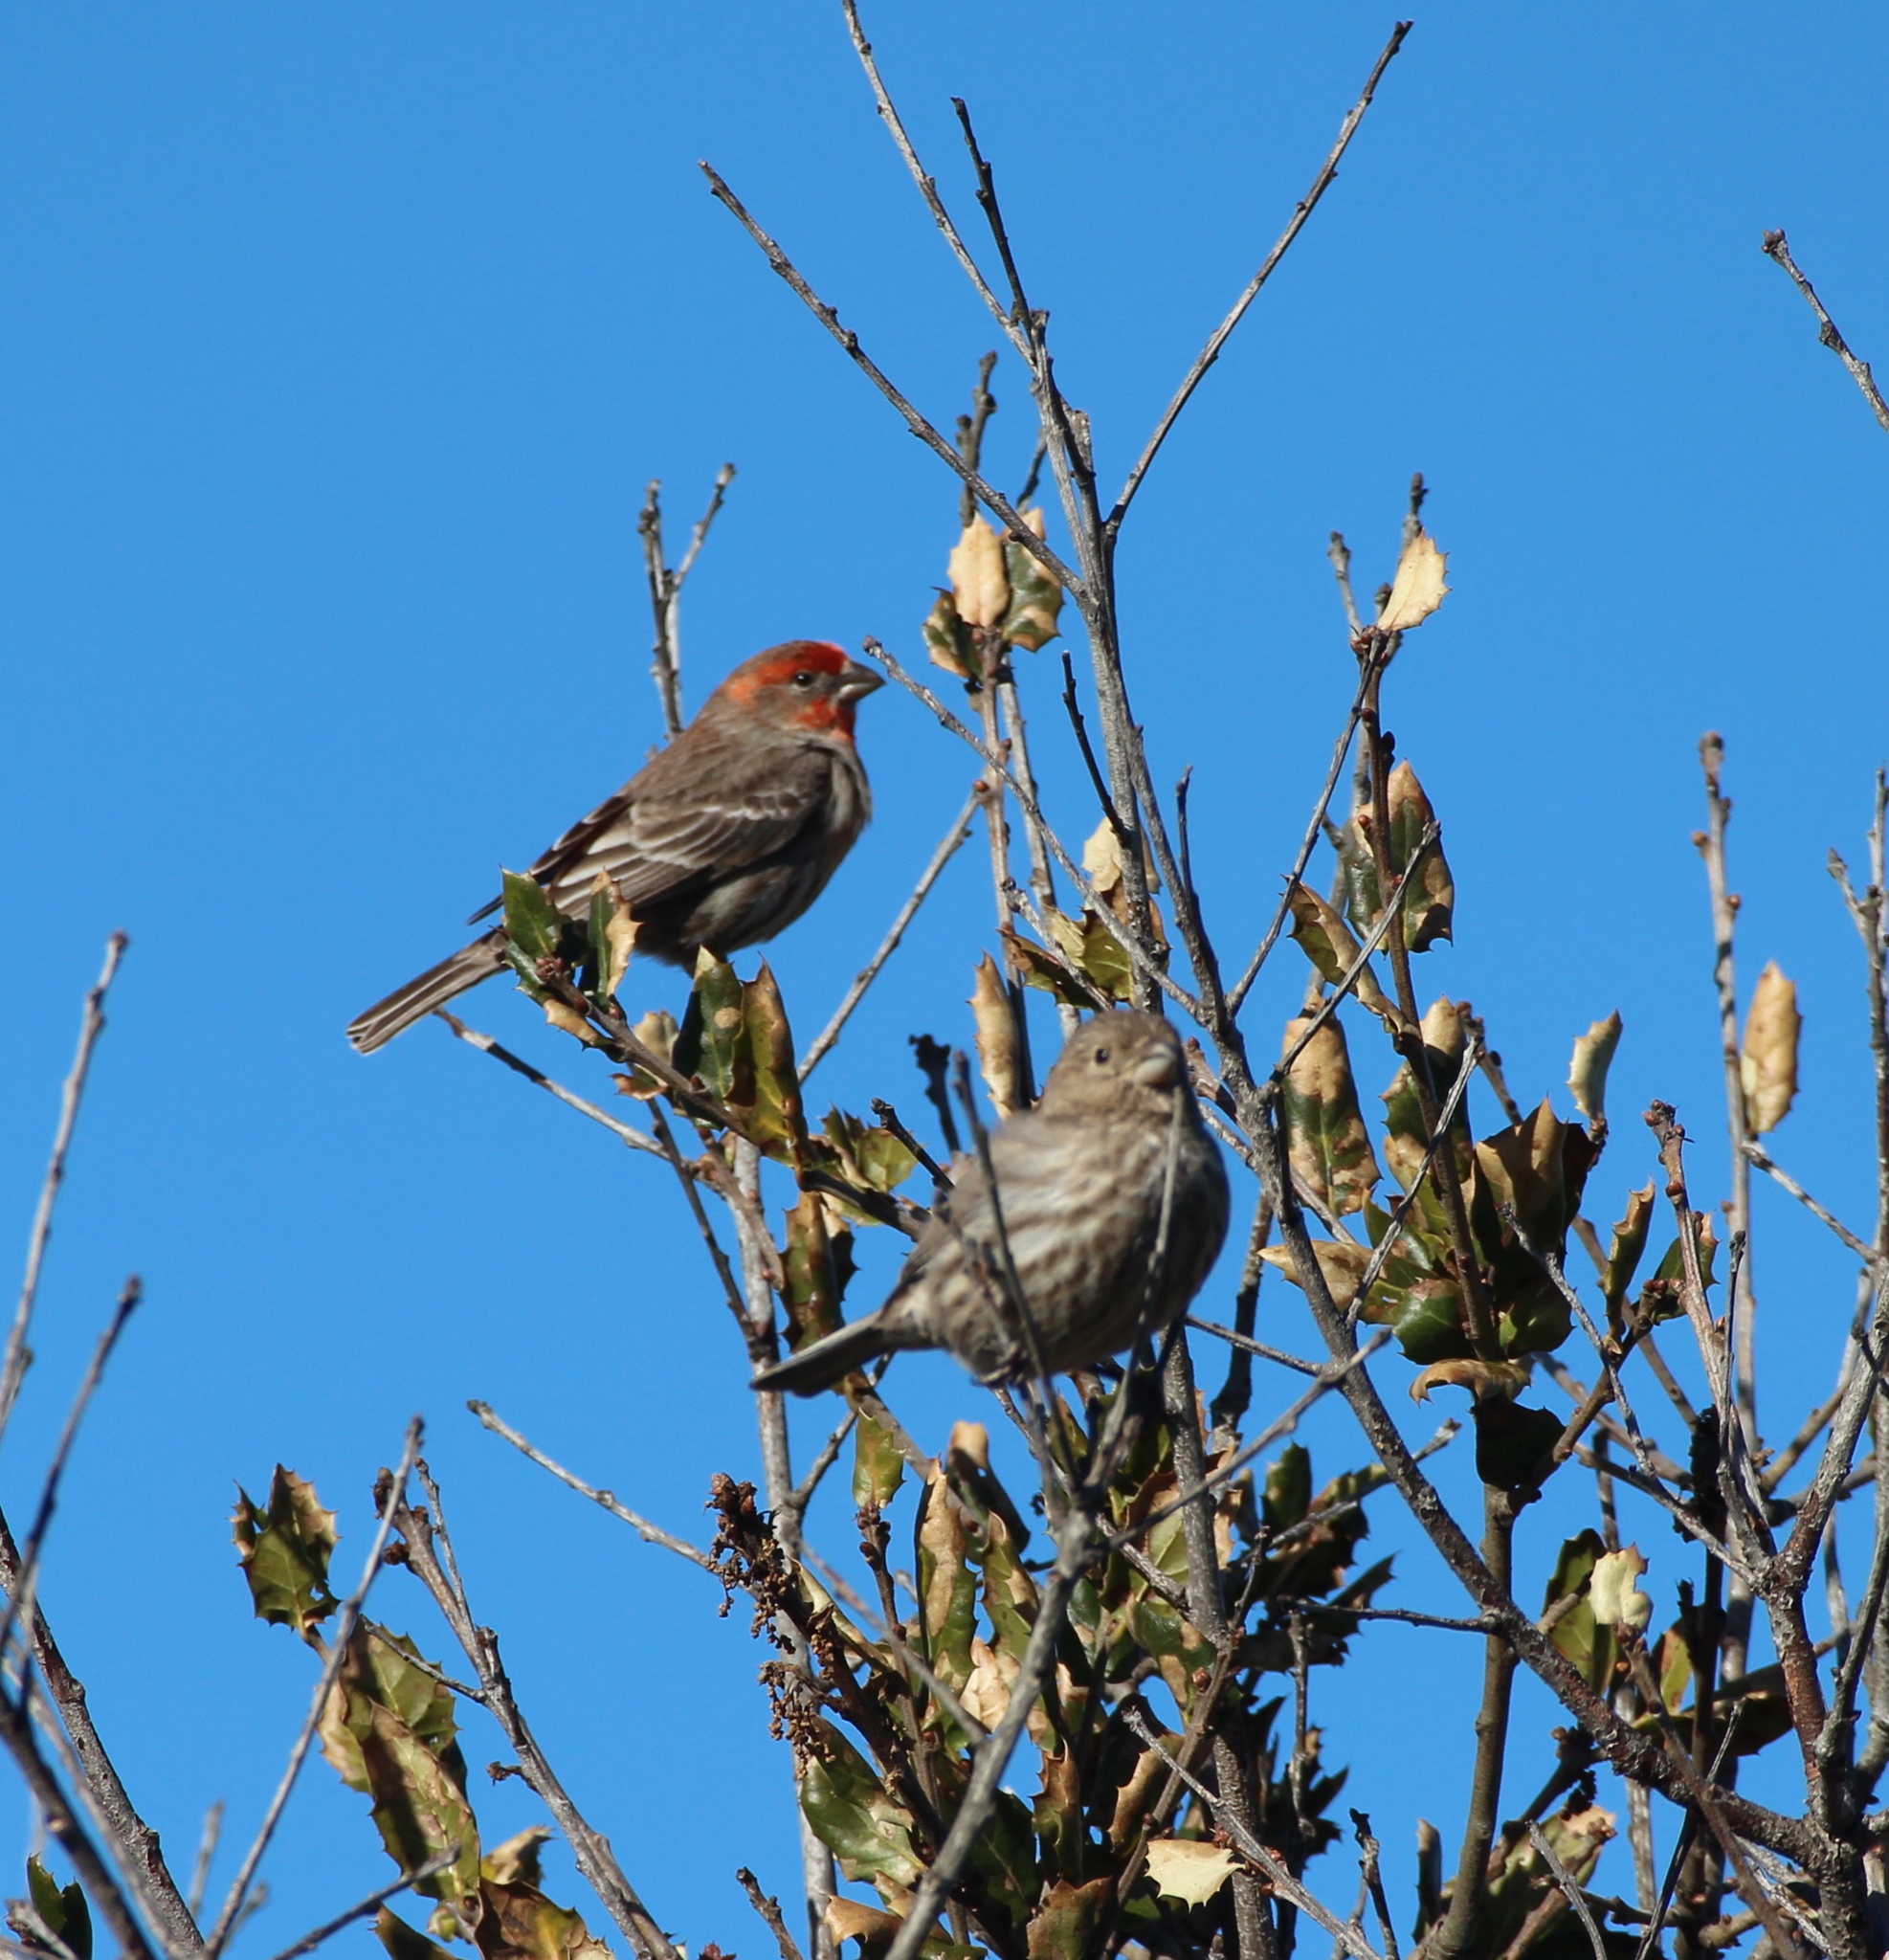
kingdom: Animalia
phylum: Chordata
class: Aves
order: Passeriformes
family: Fringillidae
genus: Haemorhous
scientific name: Haemorhous mexicanus
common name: House finch
